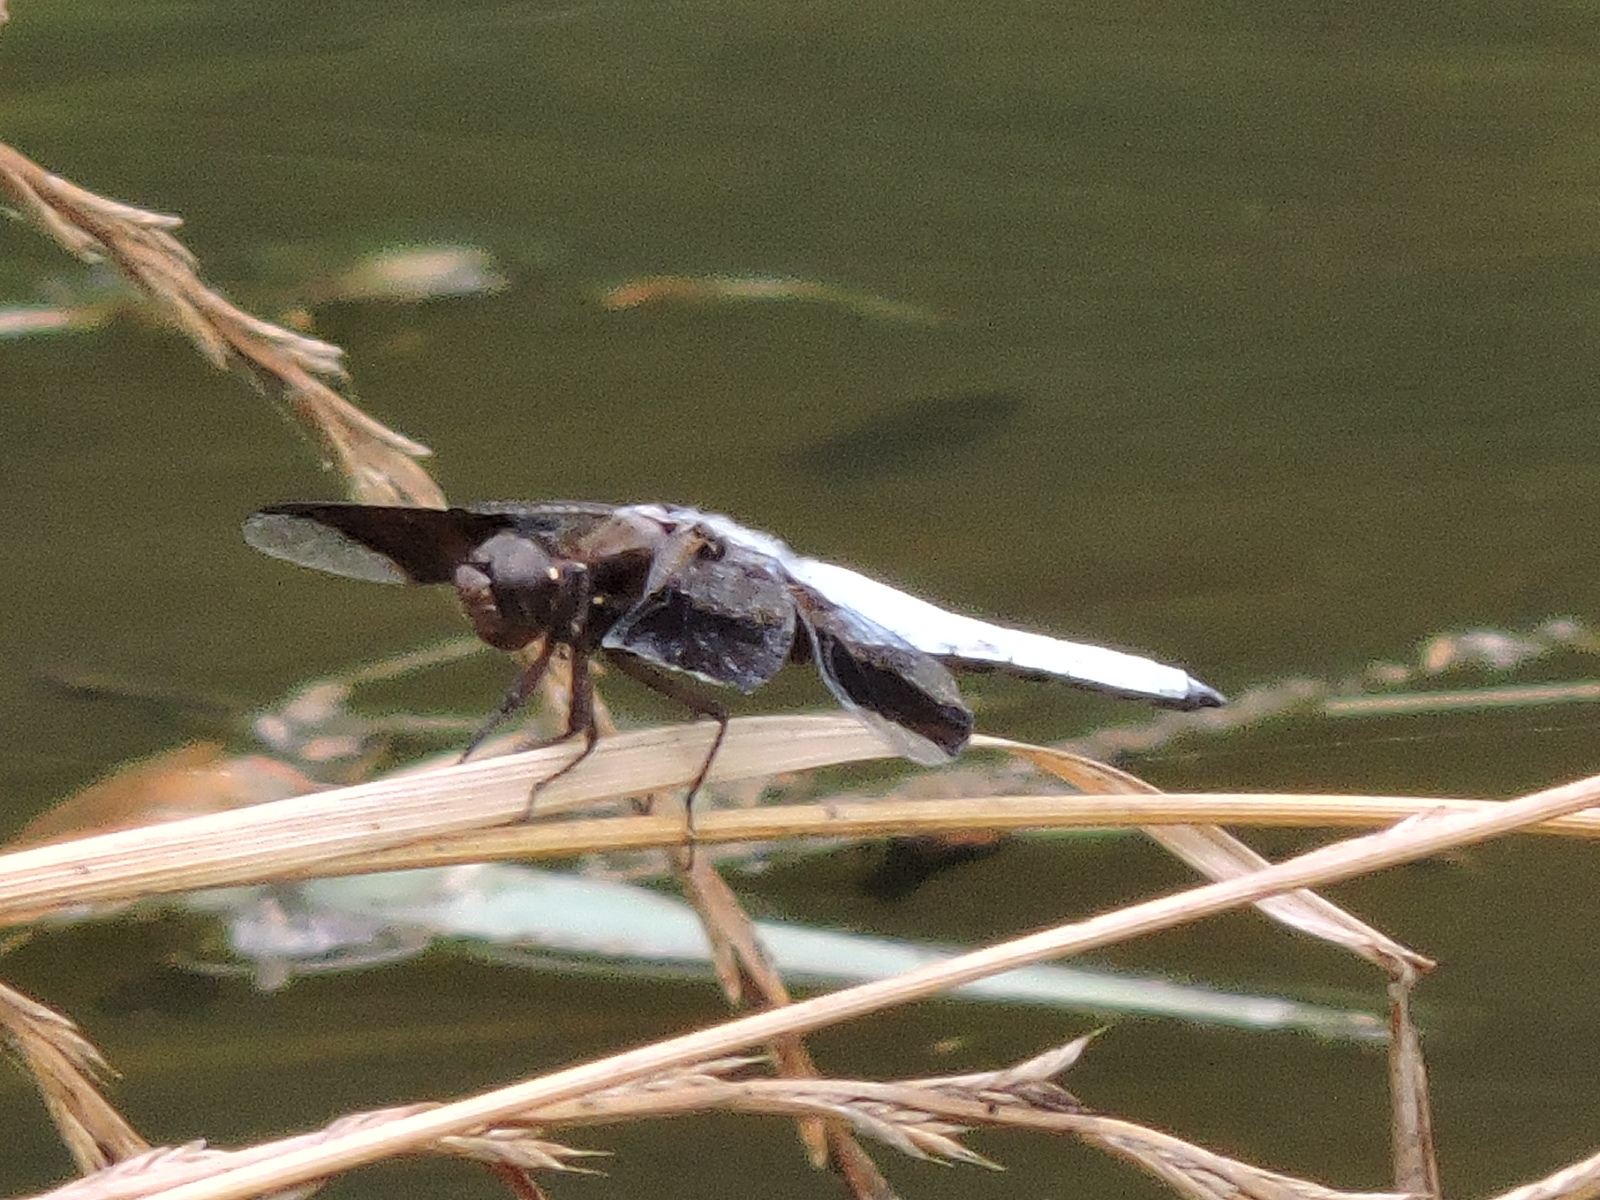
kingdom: Animalia
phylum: Arthropoda
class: Insecta
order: Odonata
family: Libellulidae
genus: Plathemis
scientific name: Plathemis lydia
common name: Common whitetail
